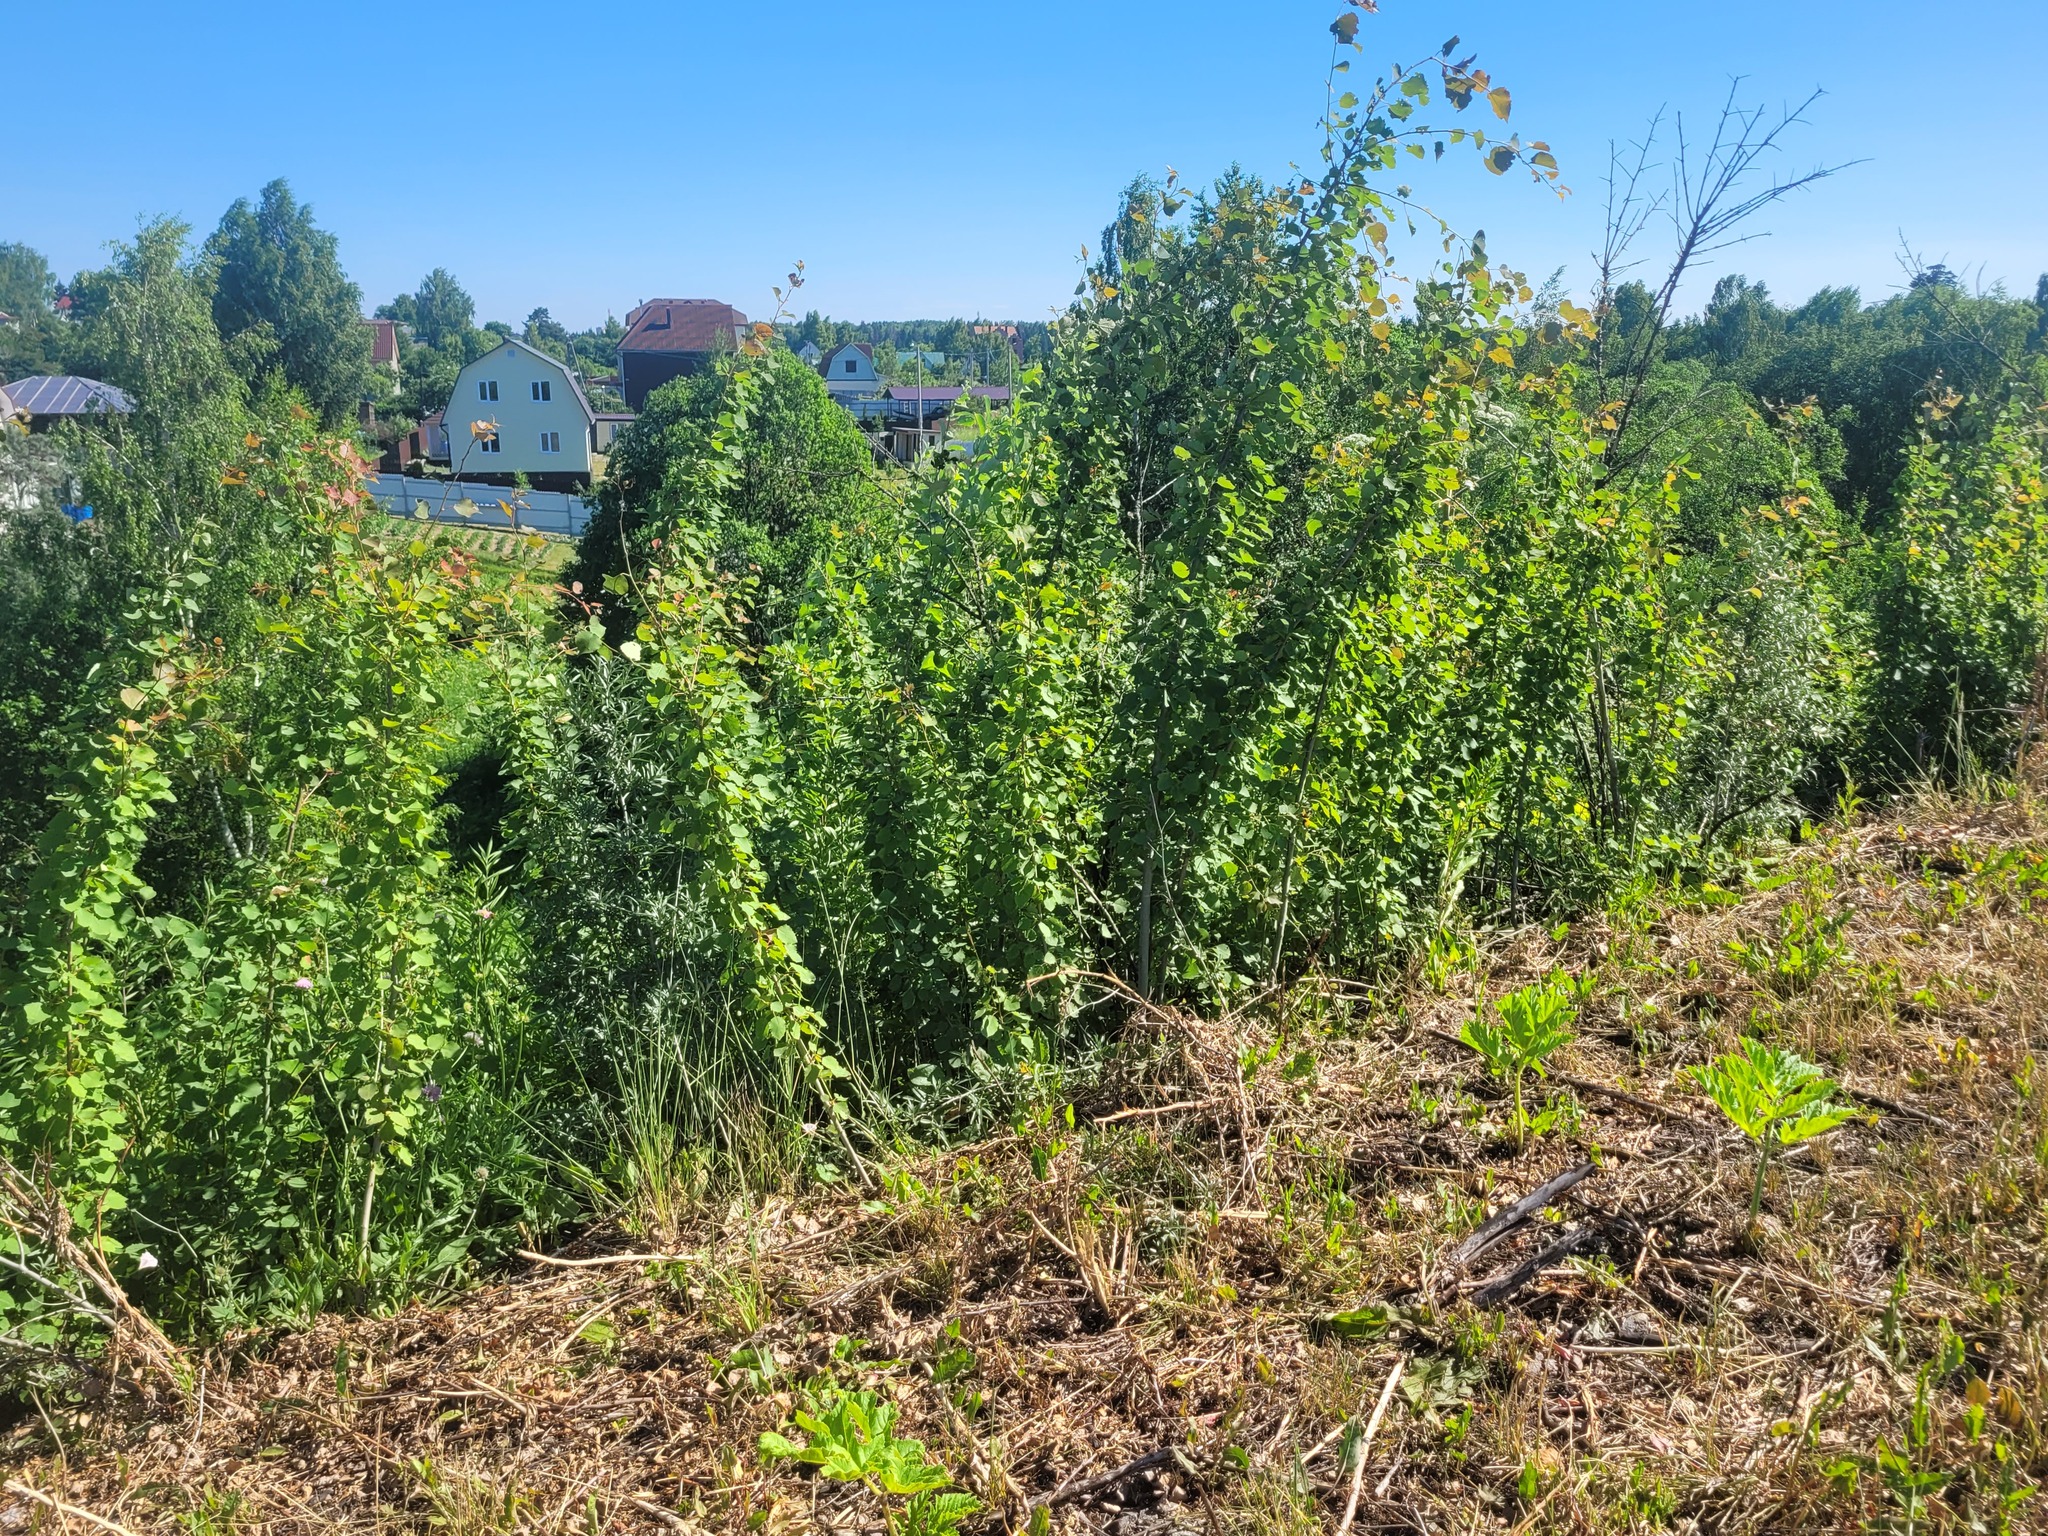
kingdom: Plantae
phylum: Tracheophyta
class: Magnoliopsida
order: Malpighiales
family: Salicaceae
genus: Populus
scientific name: Populus tremula
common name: European aspen
